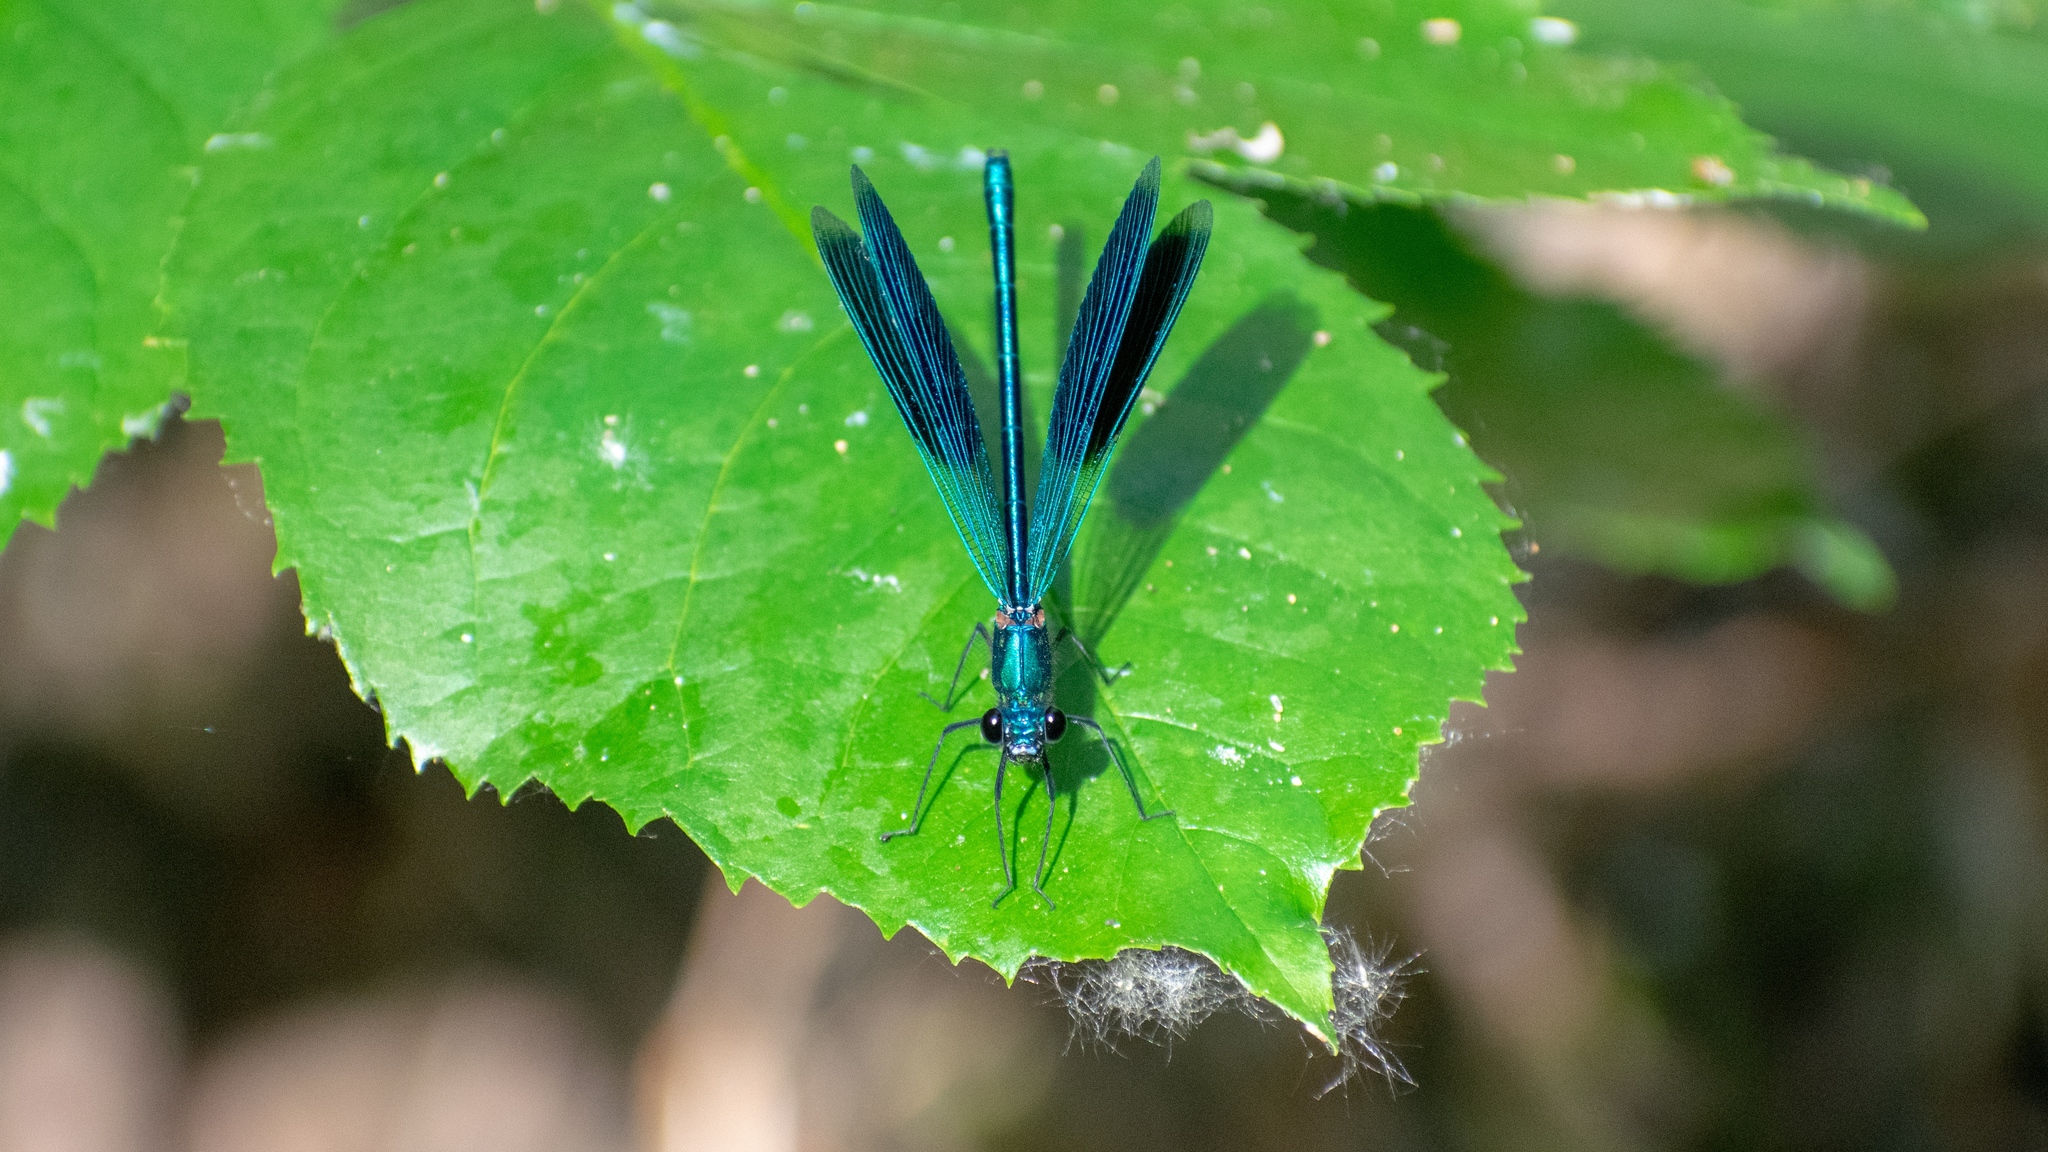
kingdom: Animalia
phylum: Arthropoda
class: Insecta
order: Odonata
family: Calopterygidae
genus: Calopteryx
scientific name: Calopteryx splendens
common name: Banded demoiselle
